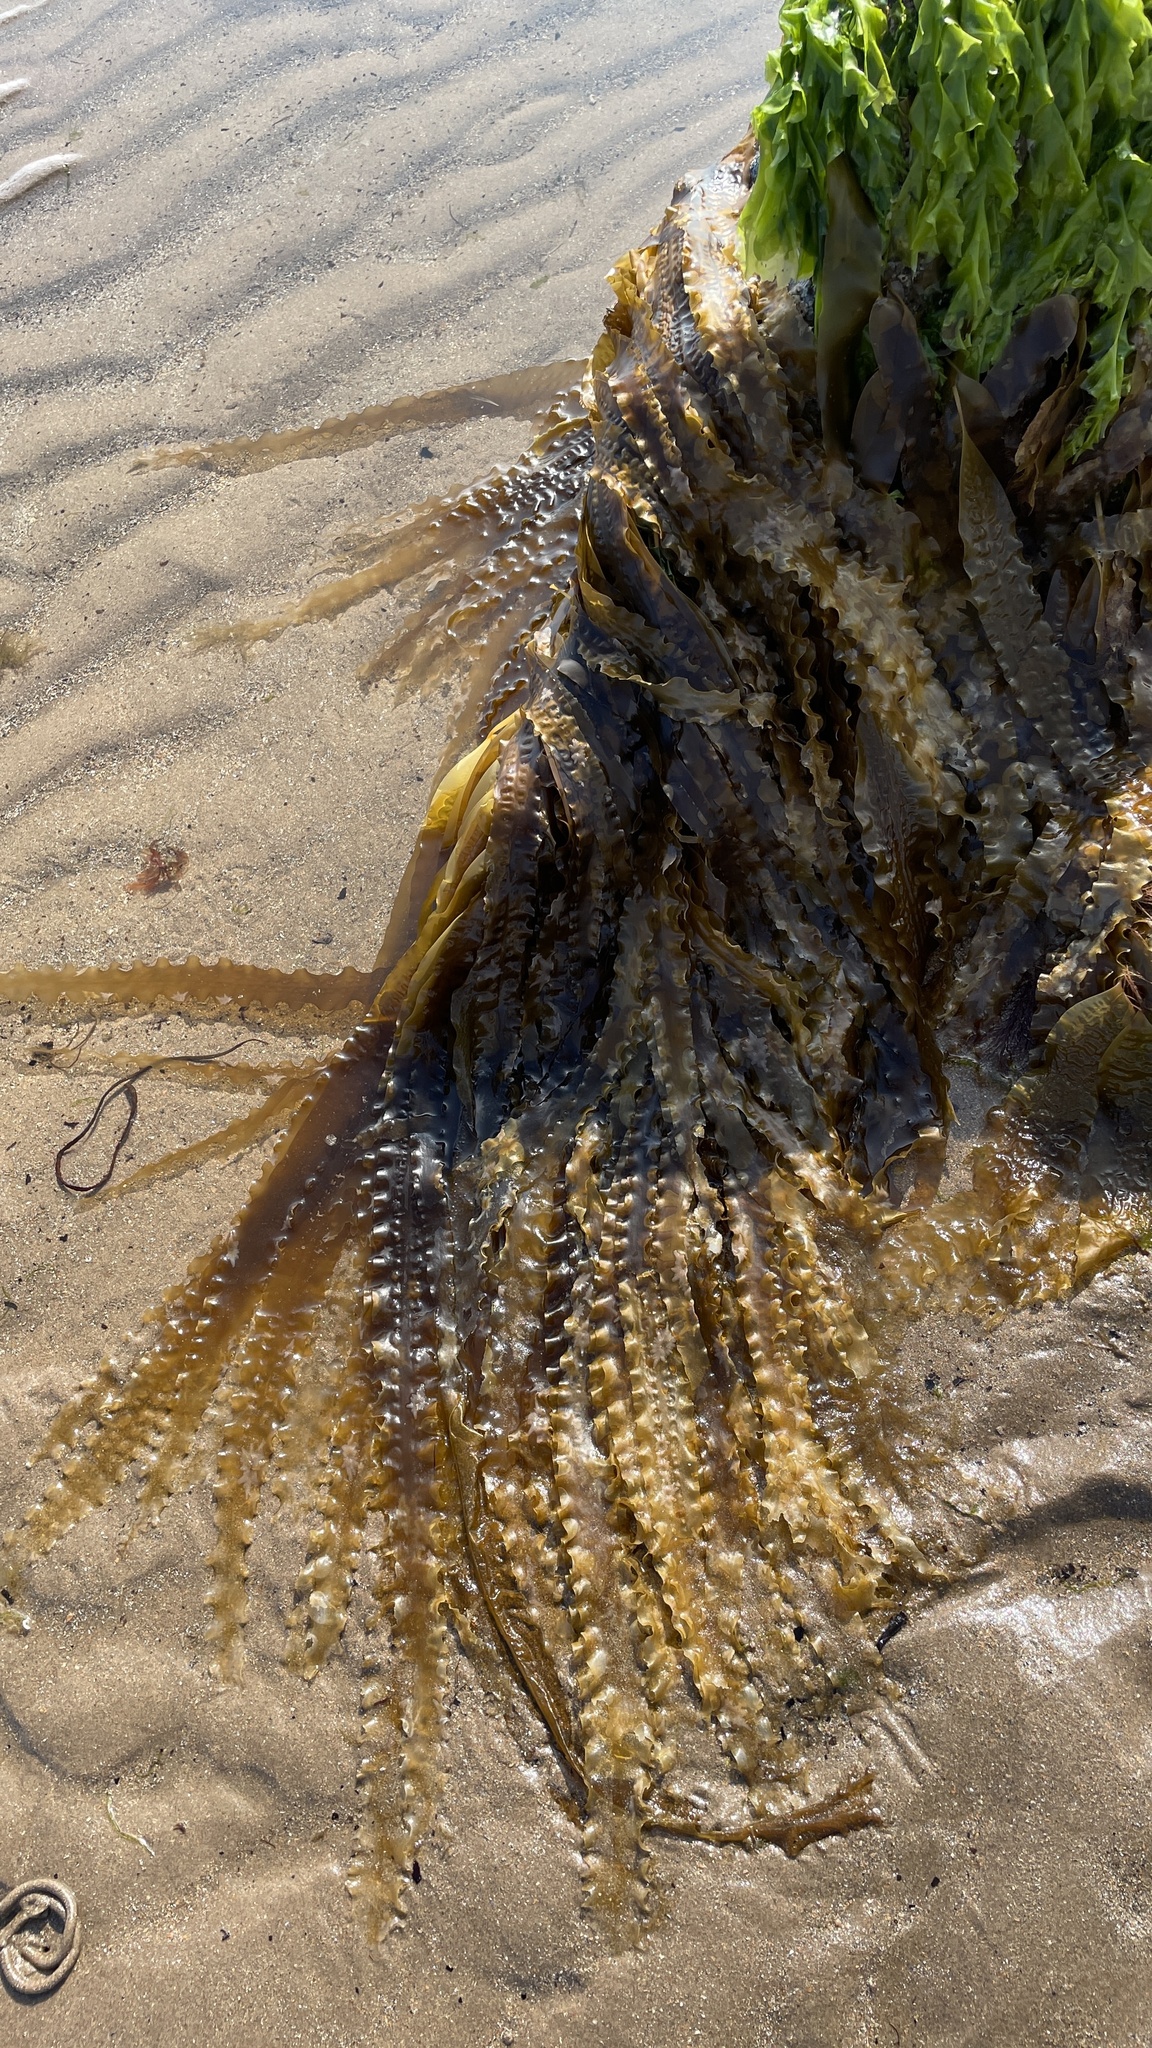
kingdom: Chromista
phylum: Ochrophyta
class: Phaeophyceae
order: Laminariales
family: Laminariaceae
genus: Saccharina
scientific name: Saccharina latissima
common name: Poor man's weather glass
